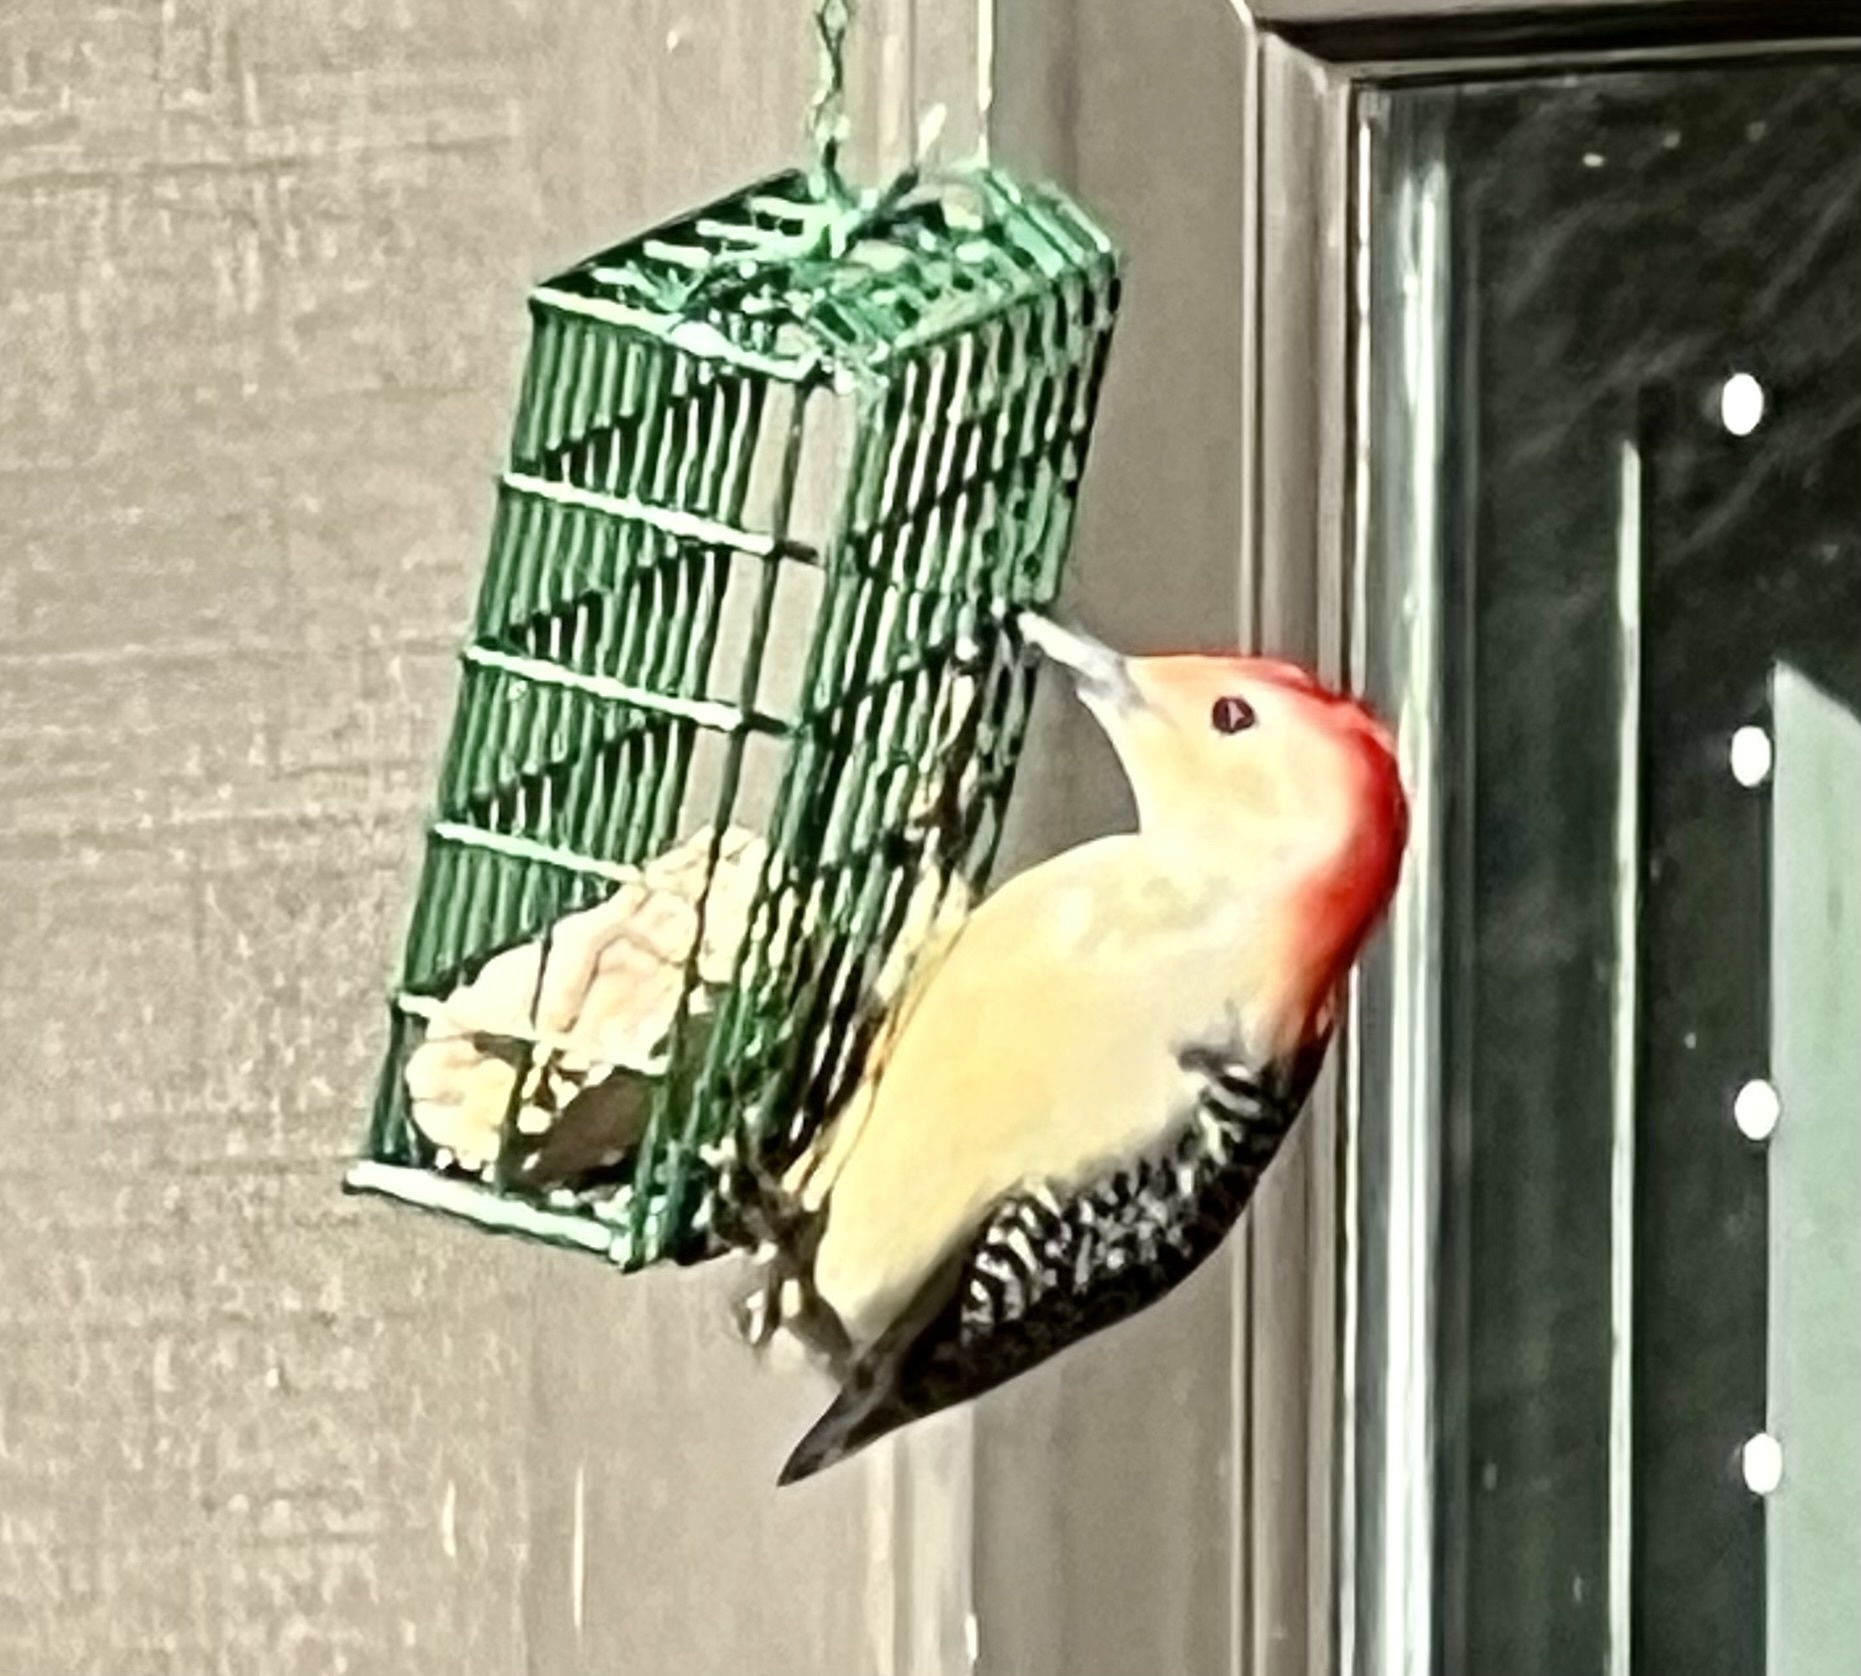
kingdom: Animalia
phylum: Chordata
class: Aves
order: Piciformes
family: Picidae
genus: Melanerpes
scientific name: Melanerpes carolinus
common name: Red-bellied woodpecker
